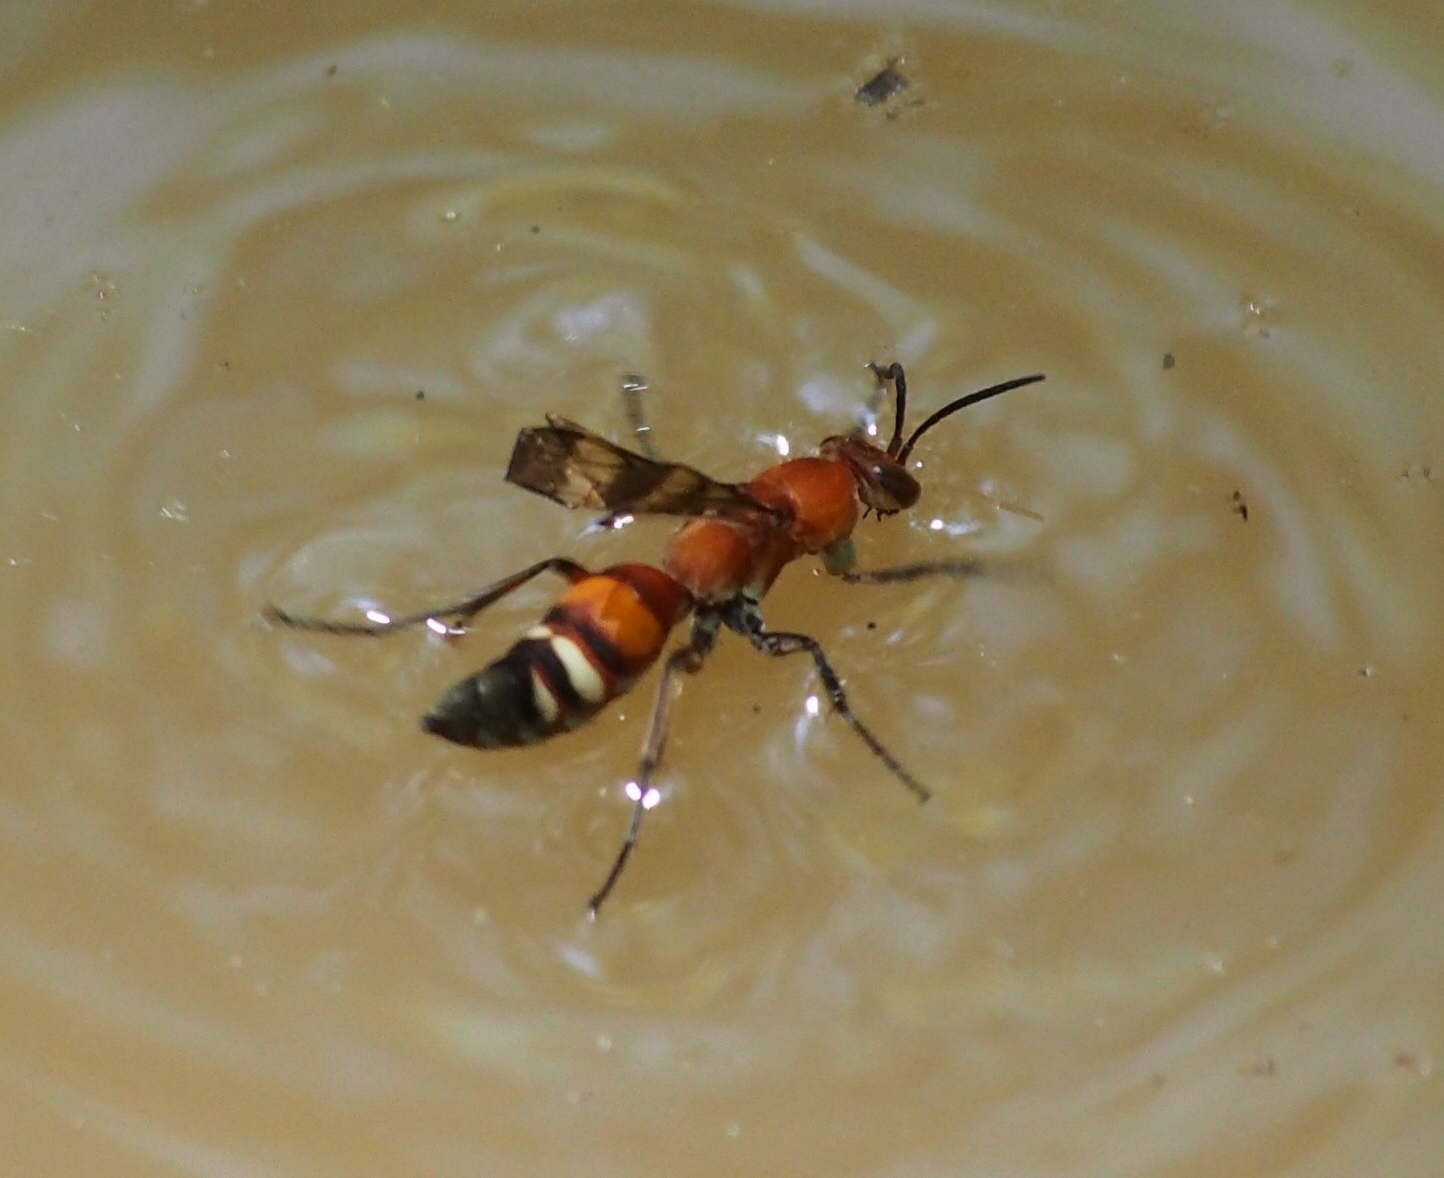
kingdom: Animalia
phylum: Arthropoda
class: Insecta
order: Hymenoptera
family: Pompilidae
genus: Psorthaspis
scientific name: Psorthaspis legata
